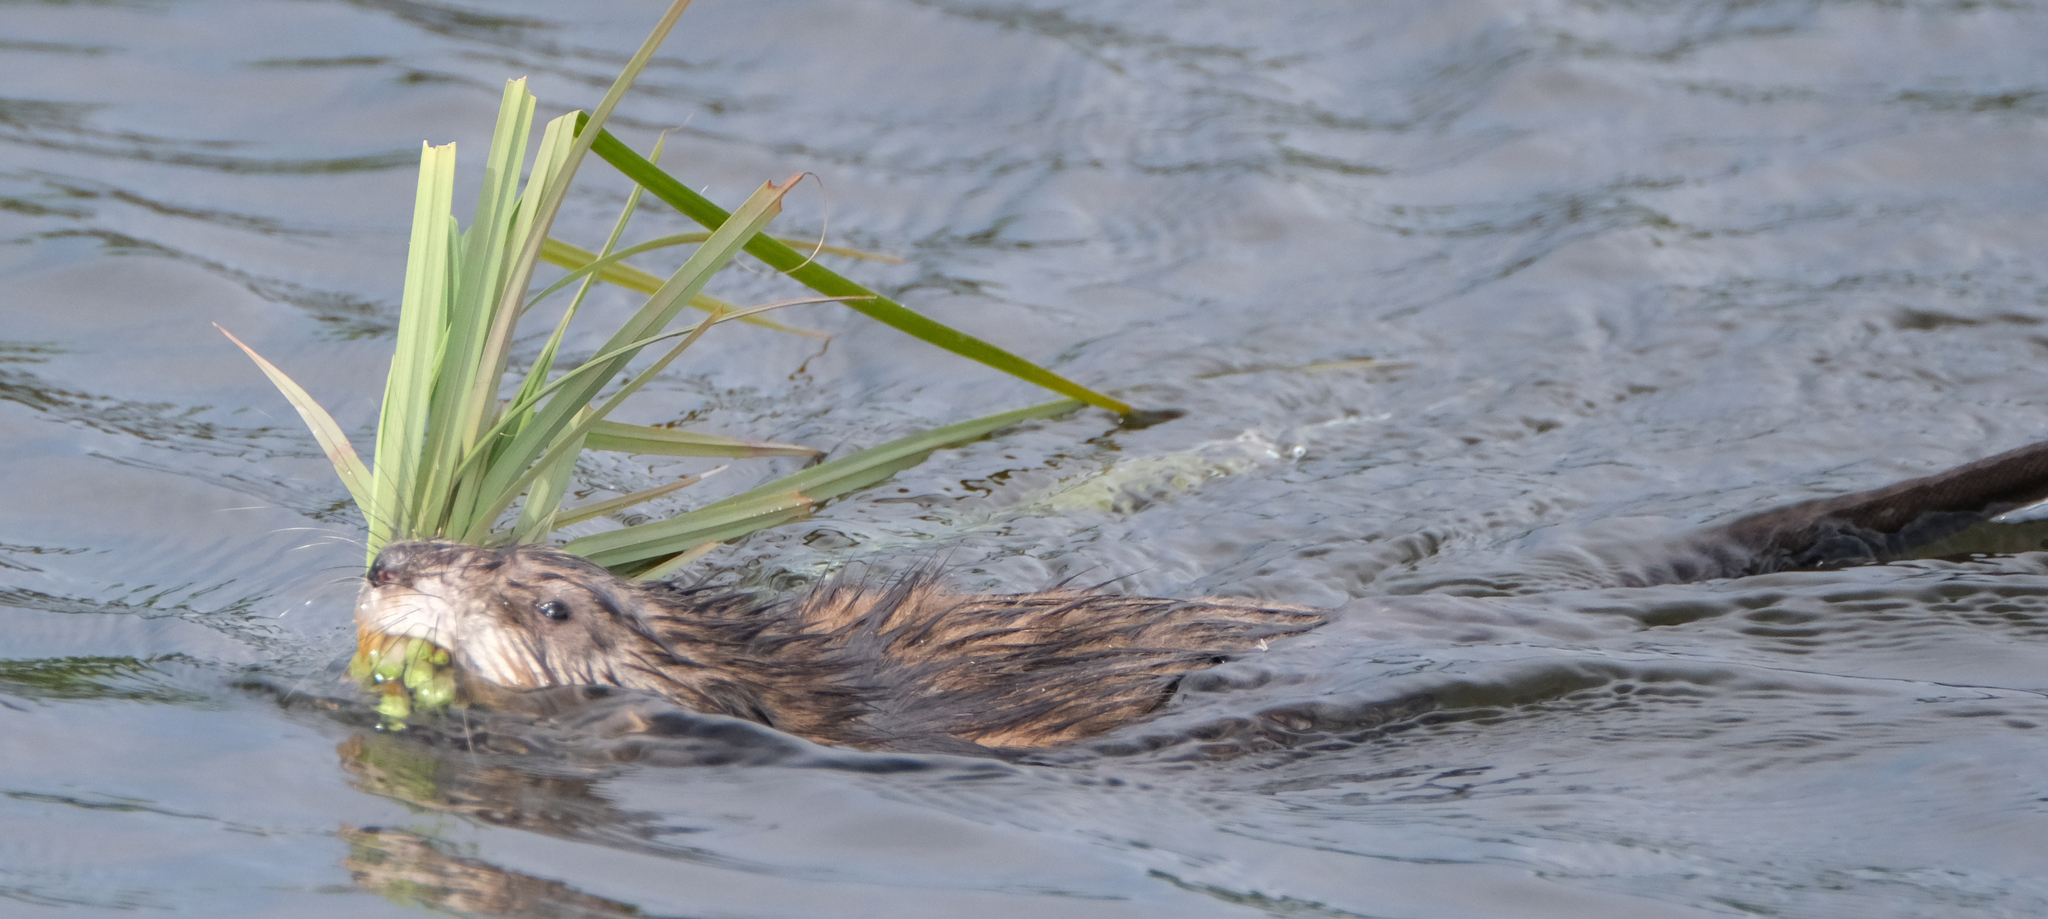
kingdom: Animalia
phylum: Chordata
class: Mammalia
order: Rodentia
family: Cricetidae
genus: Ondatra
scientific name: Ondatra zibethicus
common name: Muskrat
